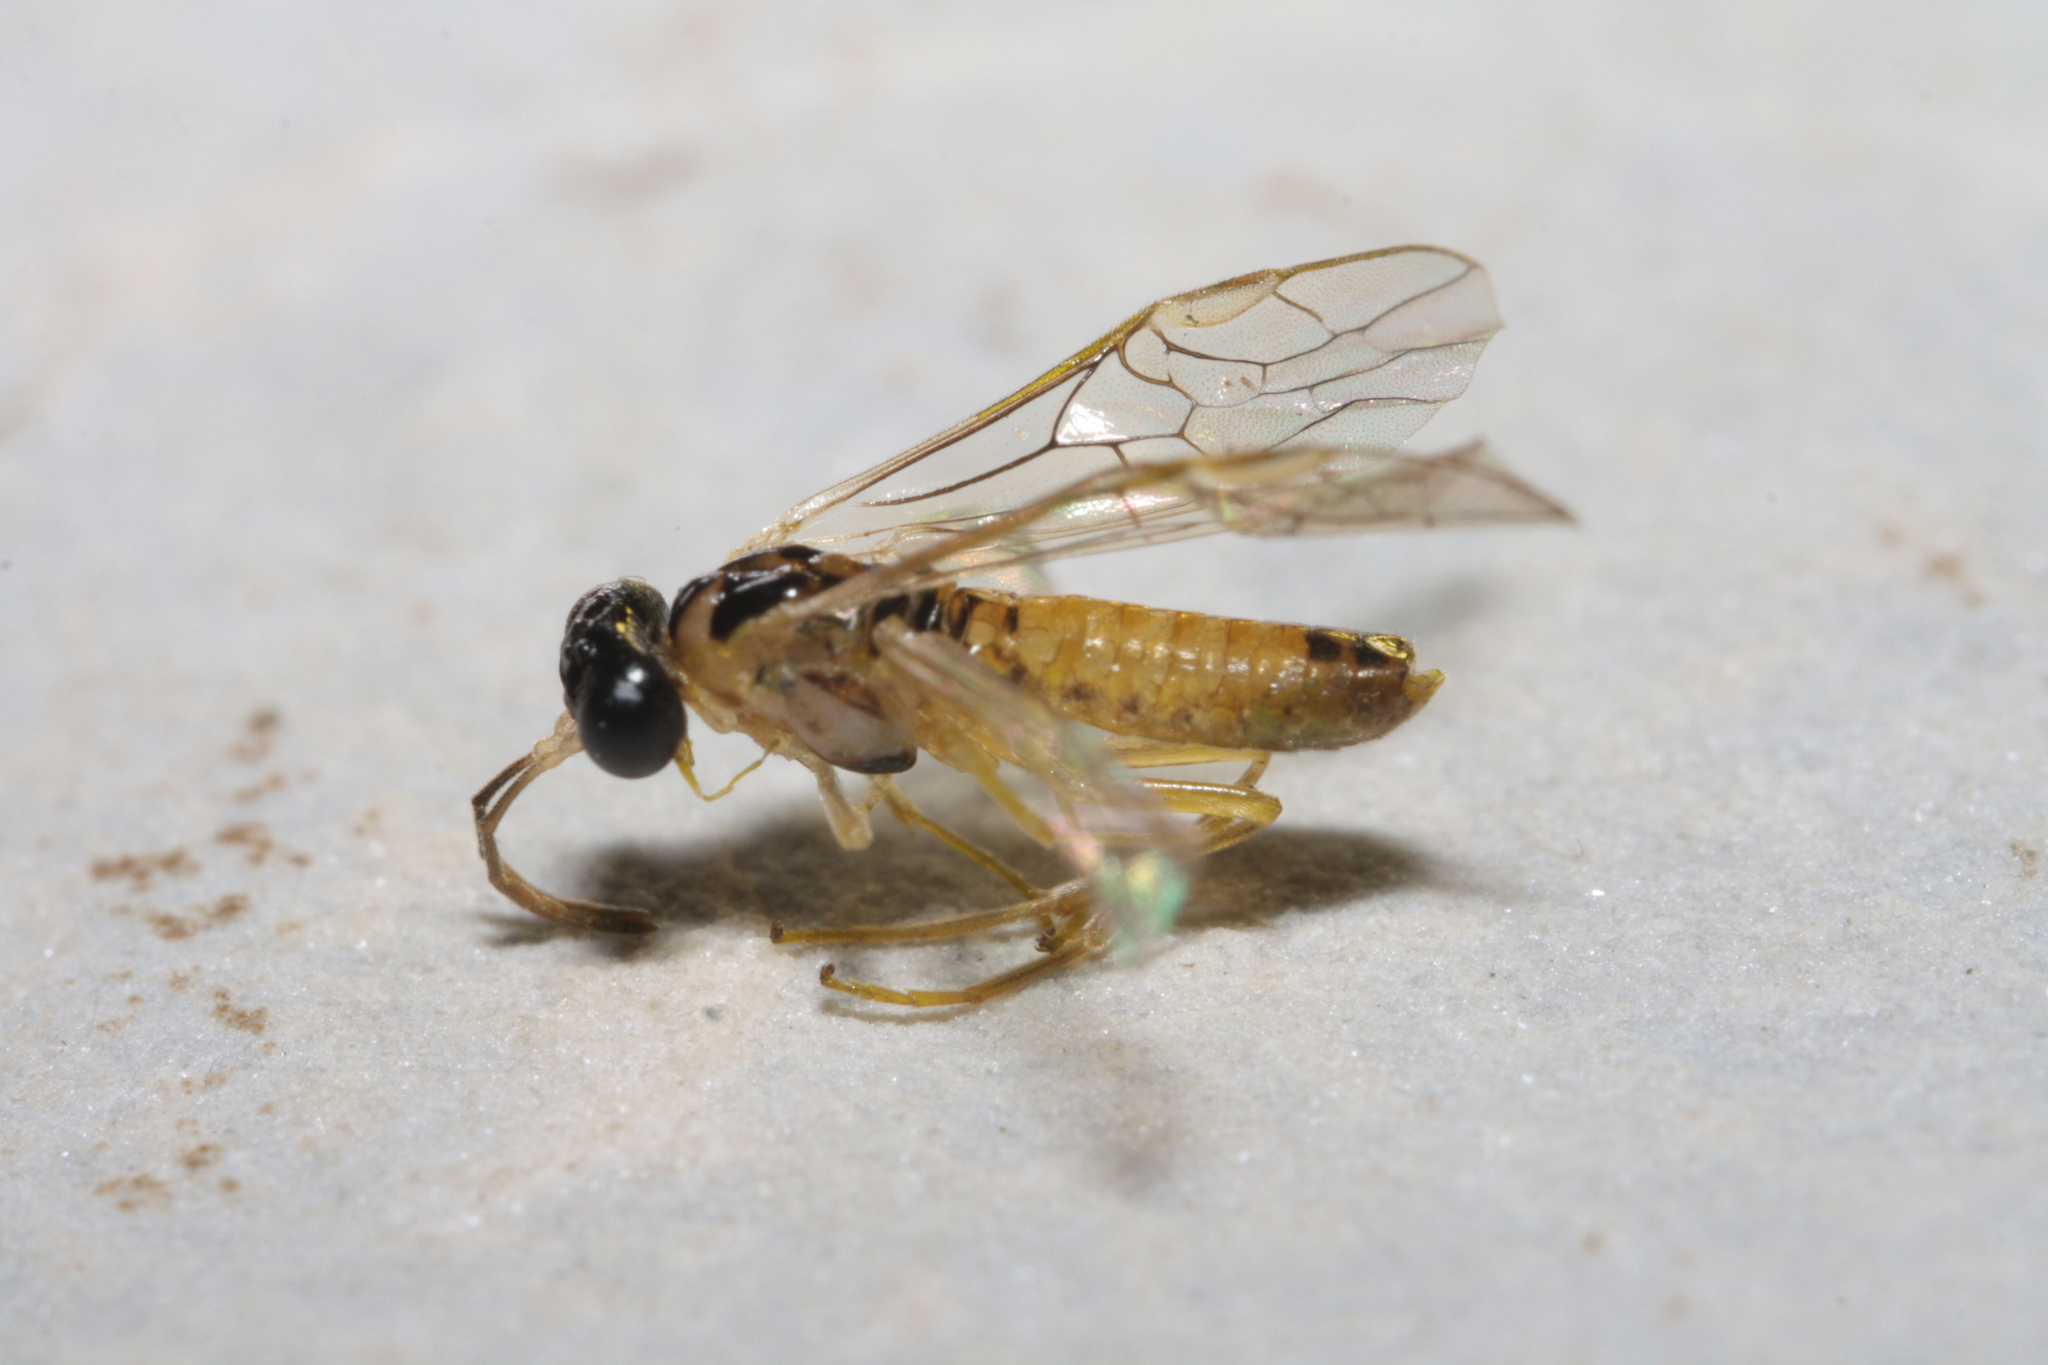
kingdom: Animalia
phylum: Arthropoda
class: Insecta
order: Hymenoptera
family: Tenthredinidae
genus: Stromboceros
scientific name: Stromboceros delicatulus
